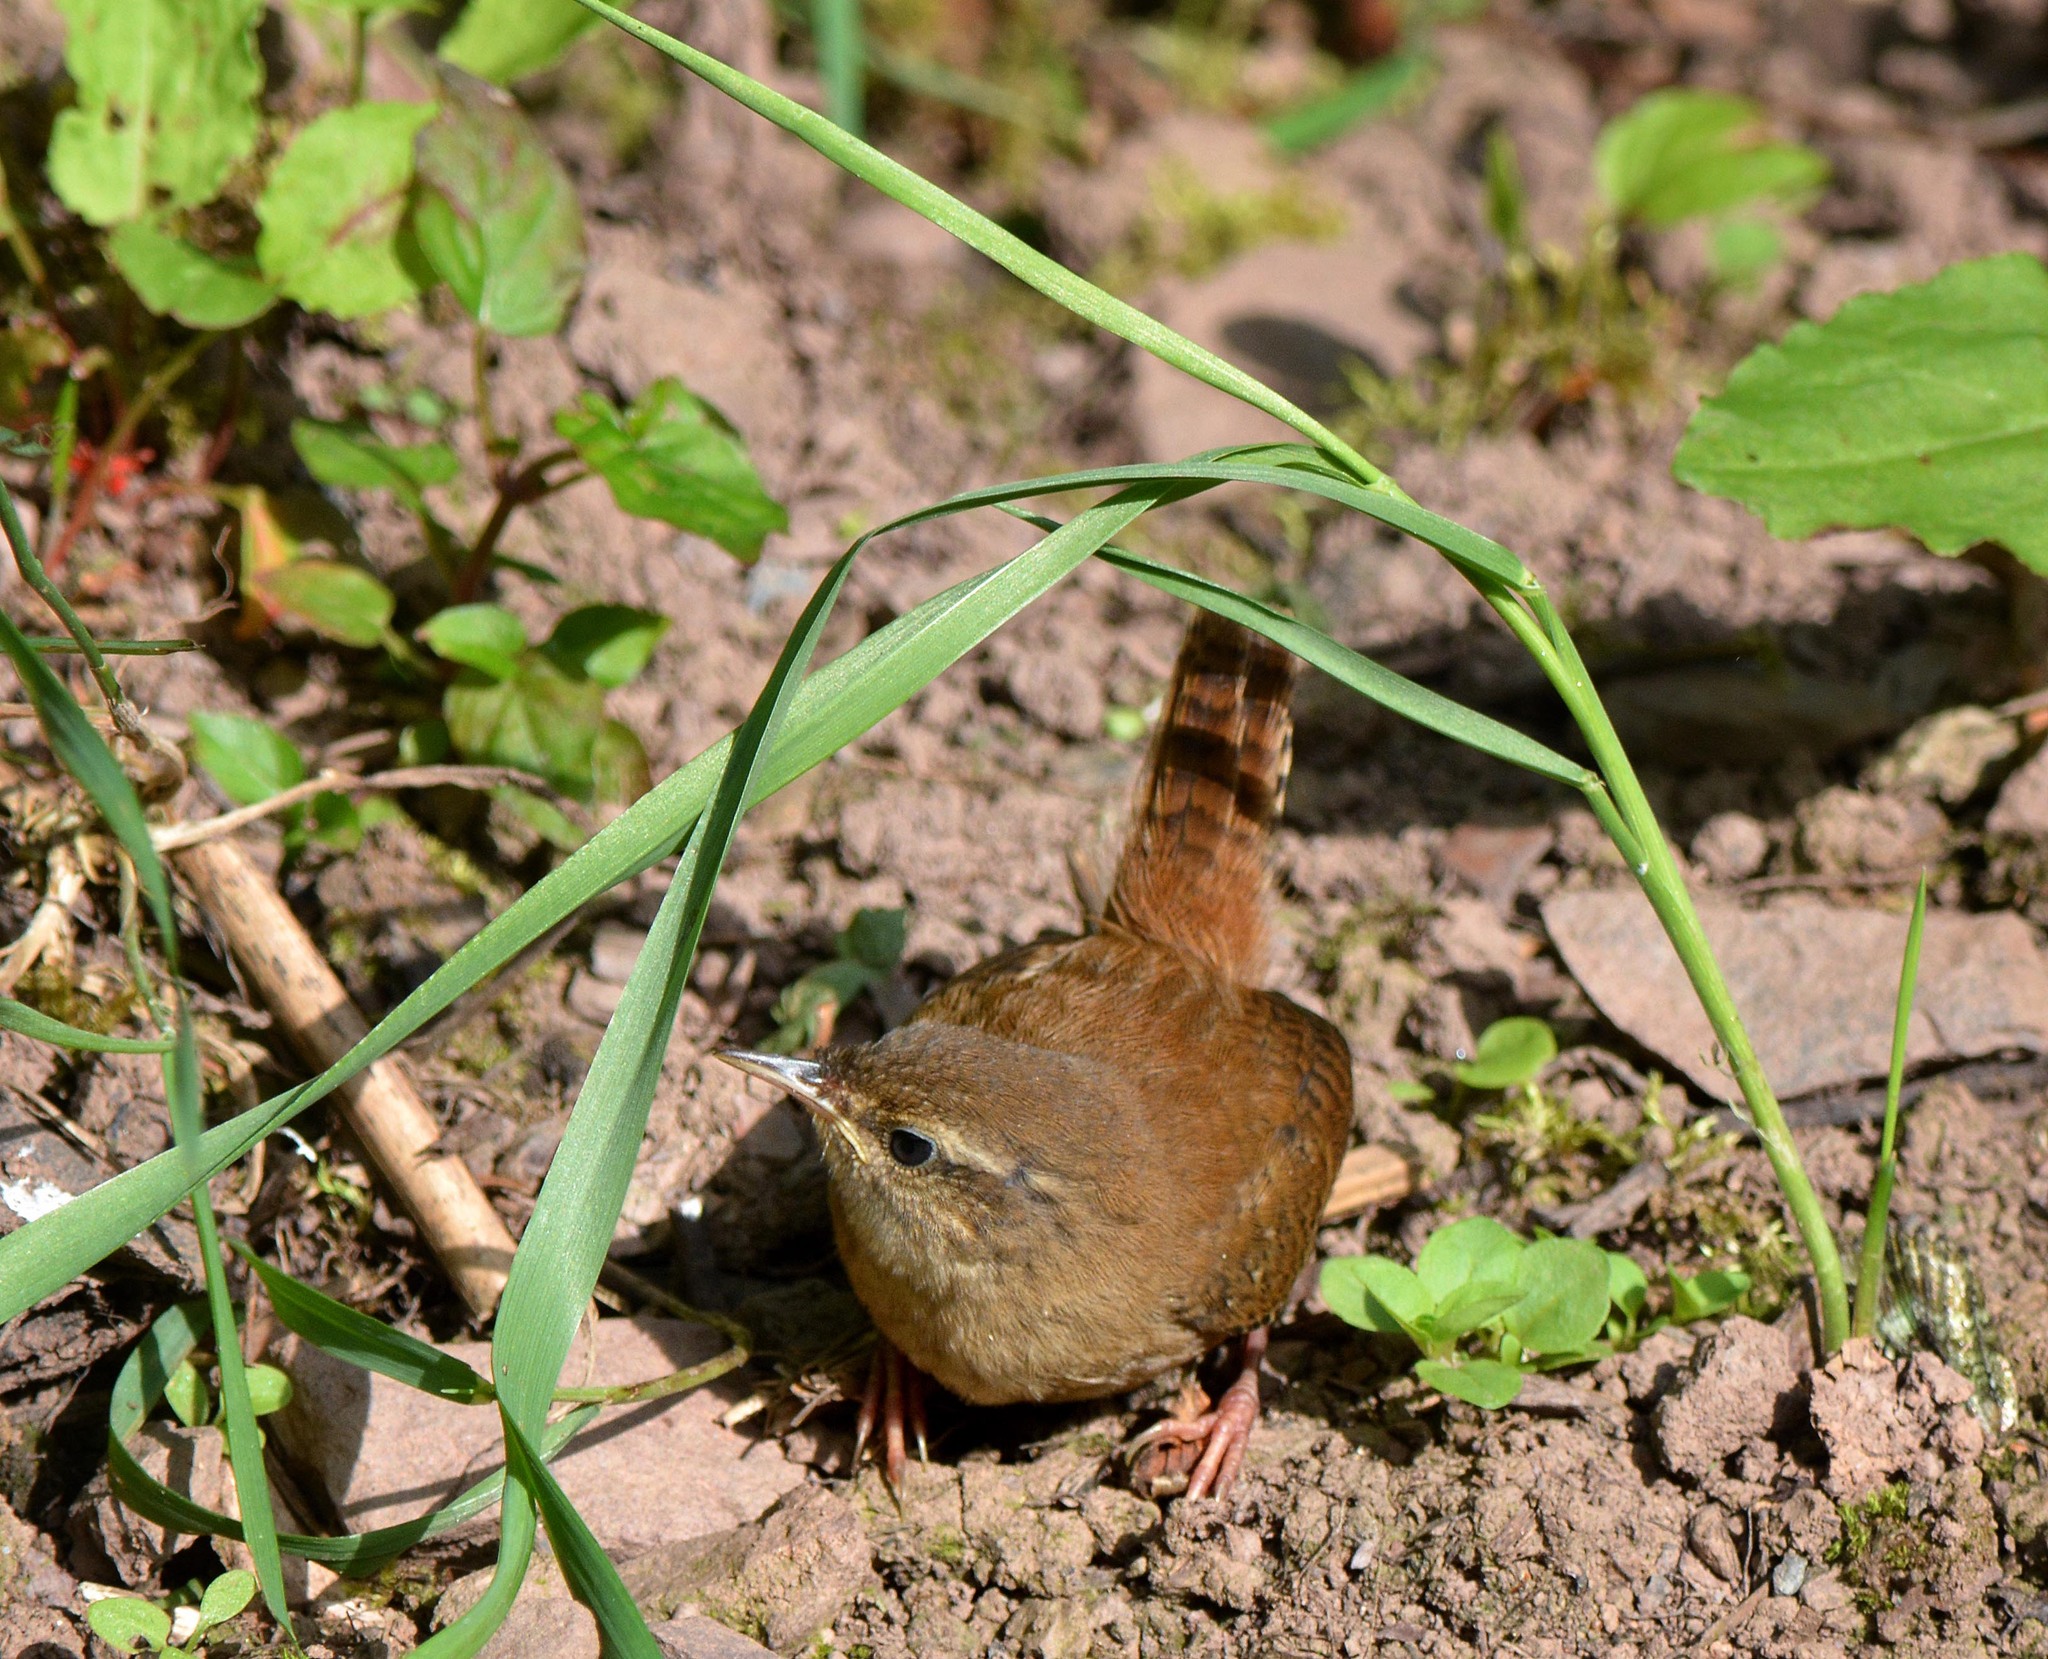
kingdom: Animalia
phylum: Chordata
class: Aves
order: Passeriformes
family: Troglodytidae
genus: Troglodytes
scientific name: Troglodytes troglodytes
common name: Eurasian wren
